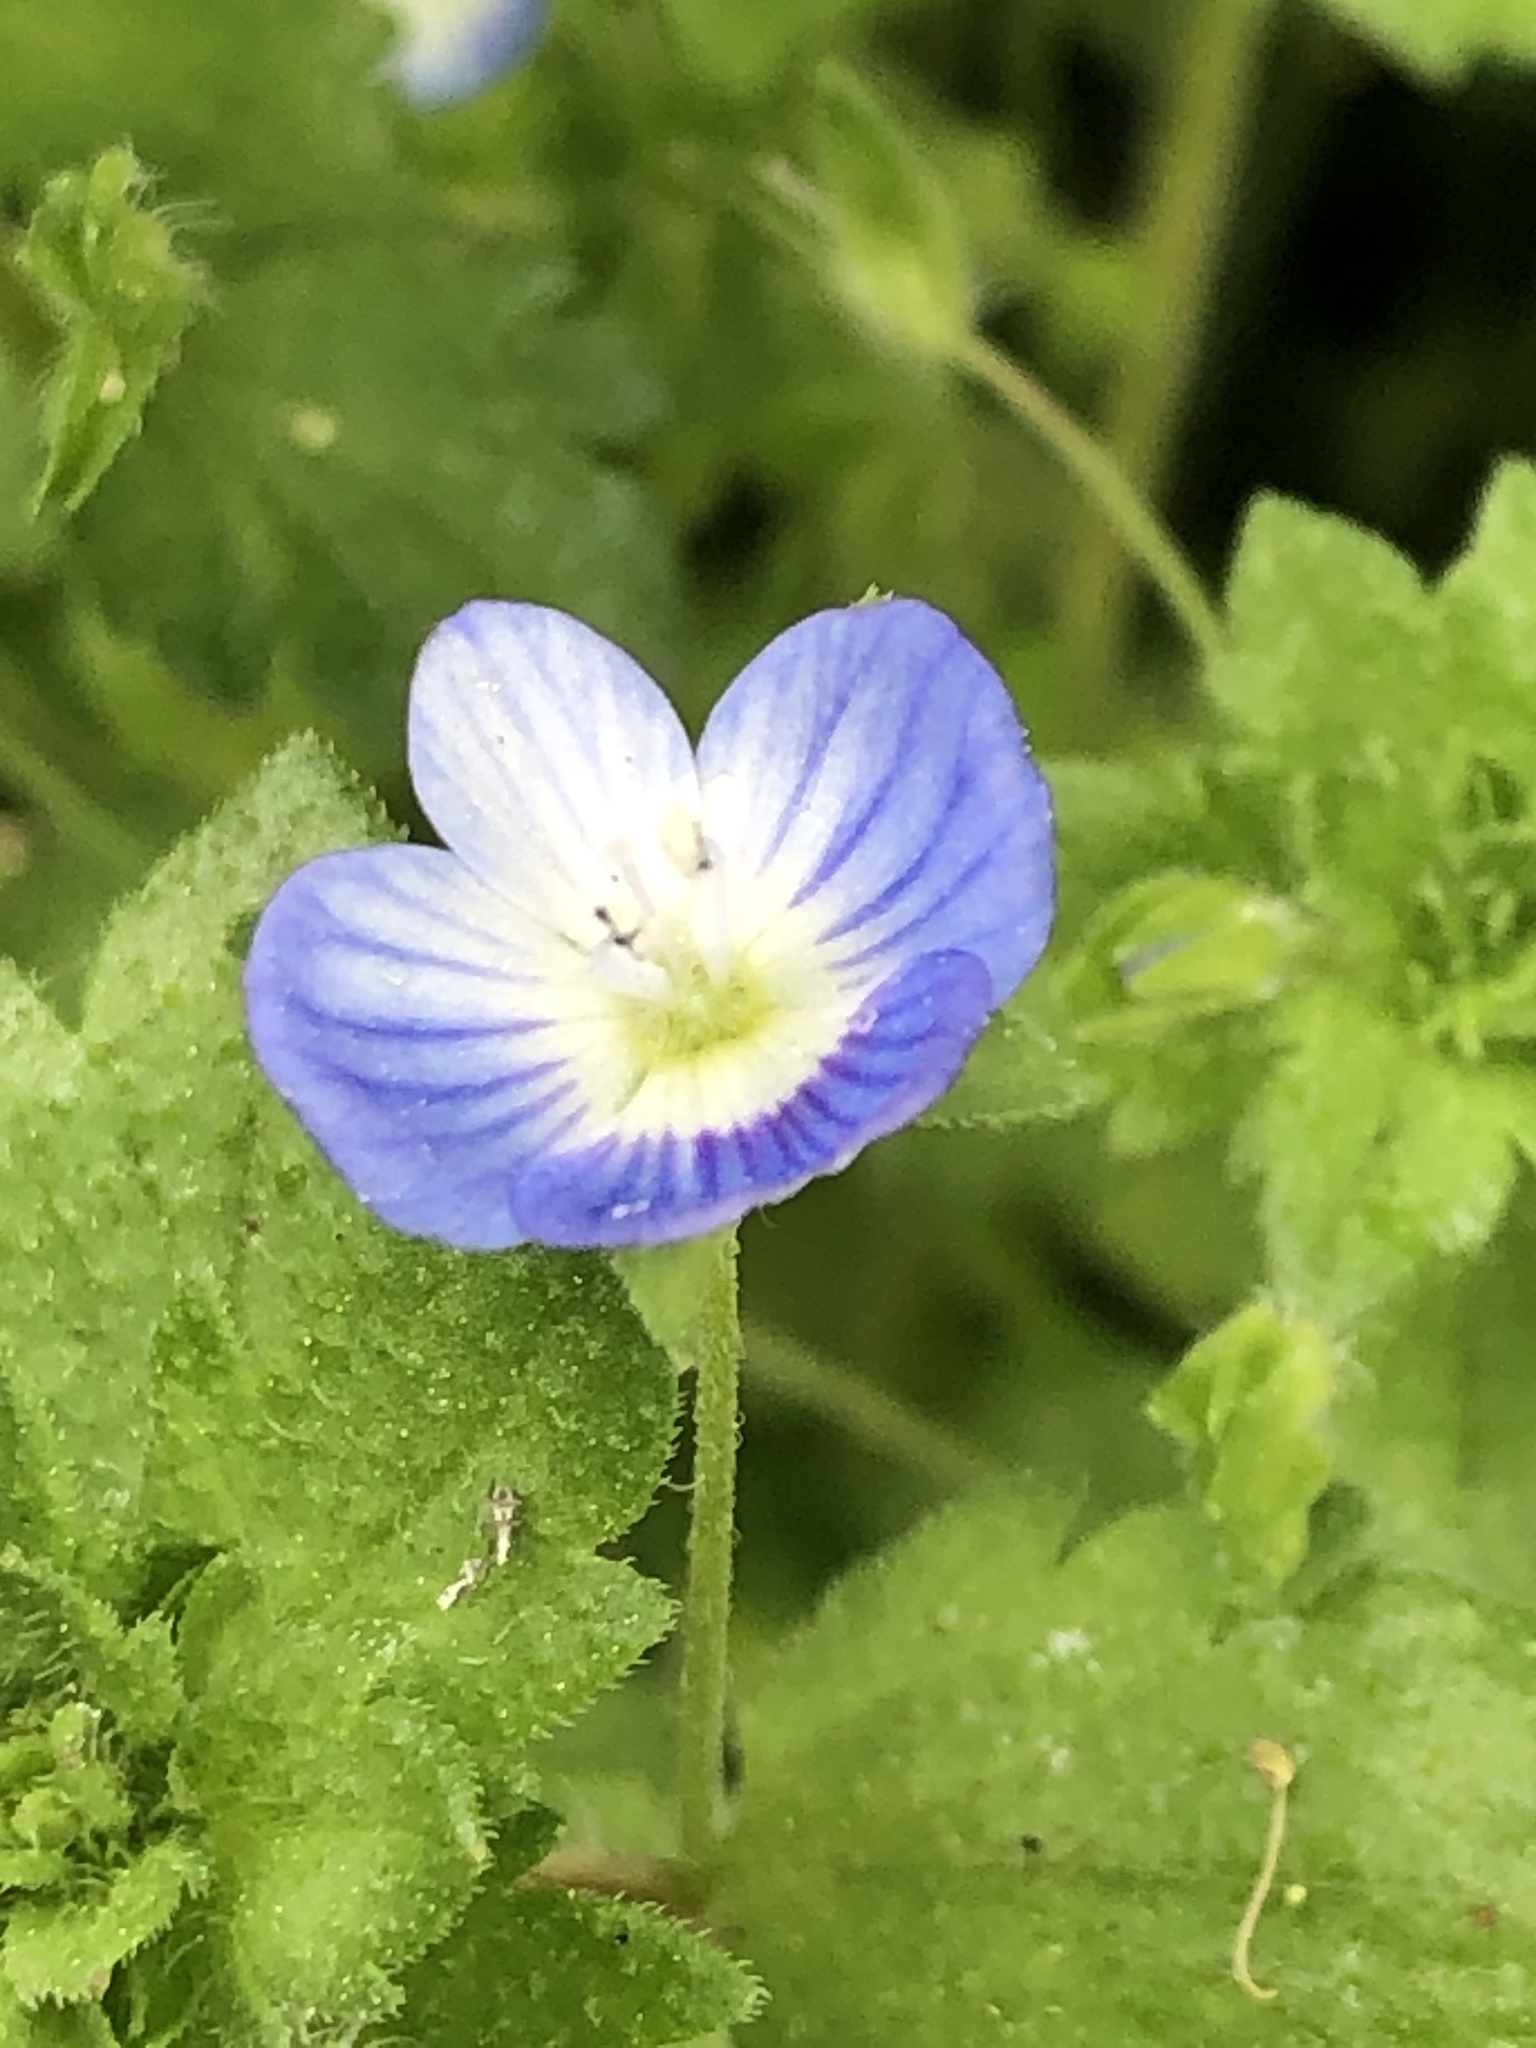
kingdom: Plantae
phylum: Tracheophyta
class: Magnoliopsida
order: Lamiales
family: Plantaginaceae
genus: Veronica
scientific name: Veronica persica
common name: Common field-speedwell
